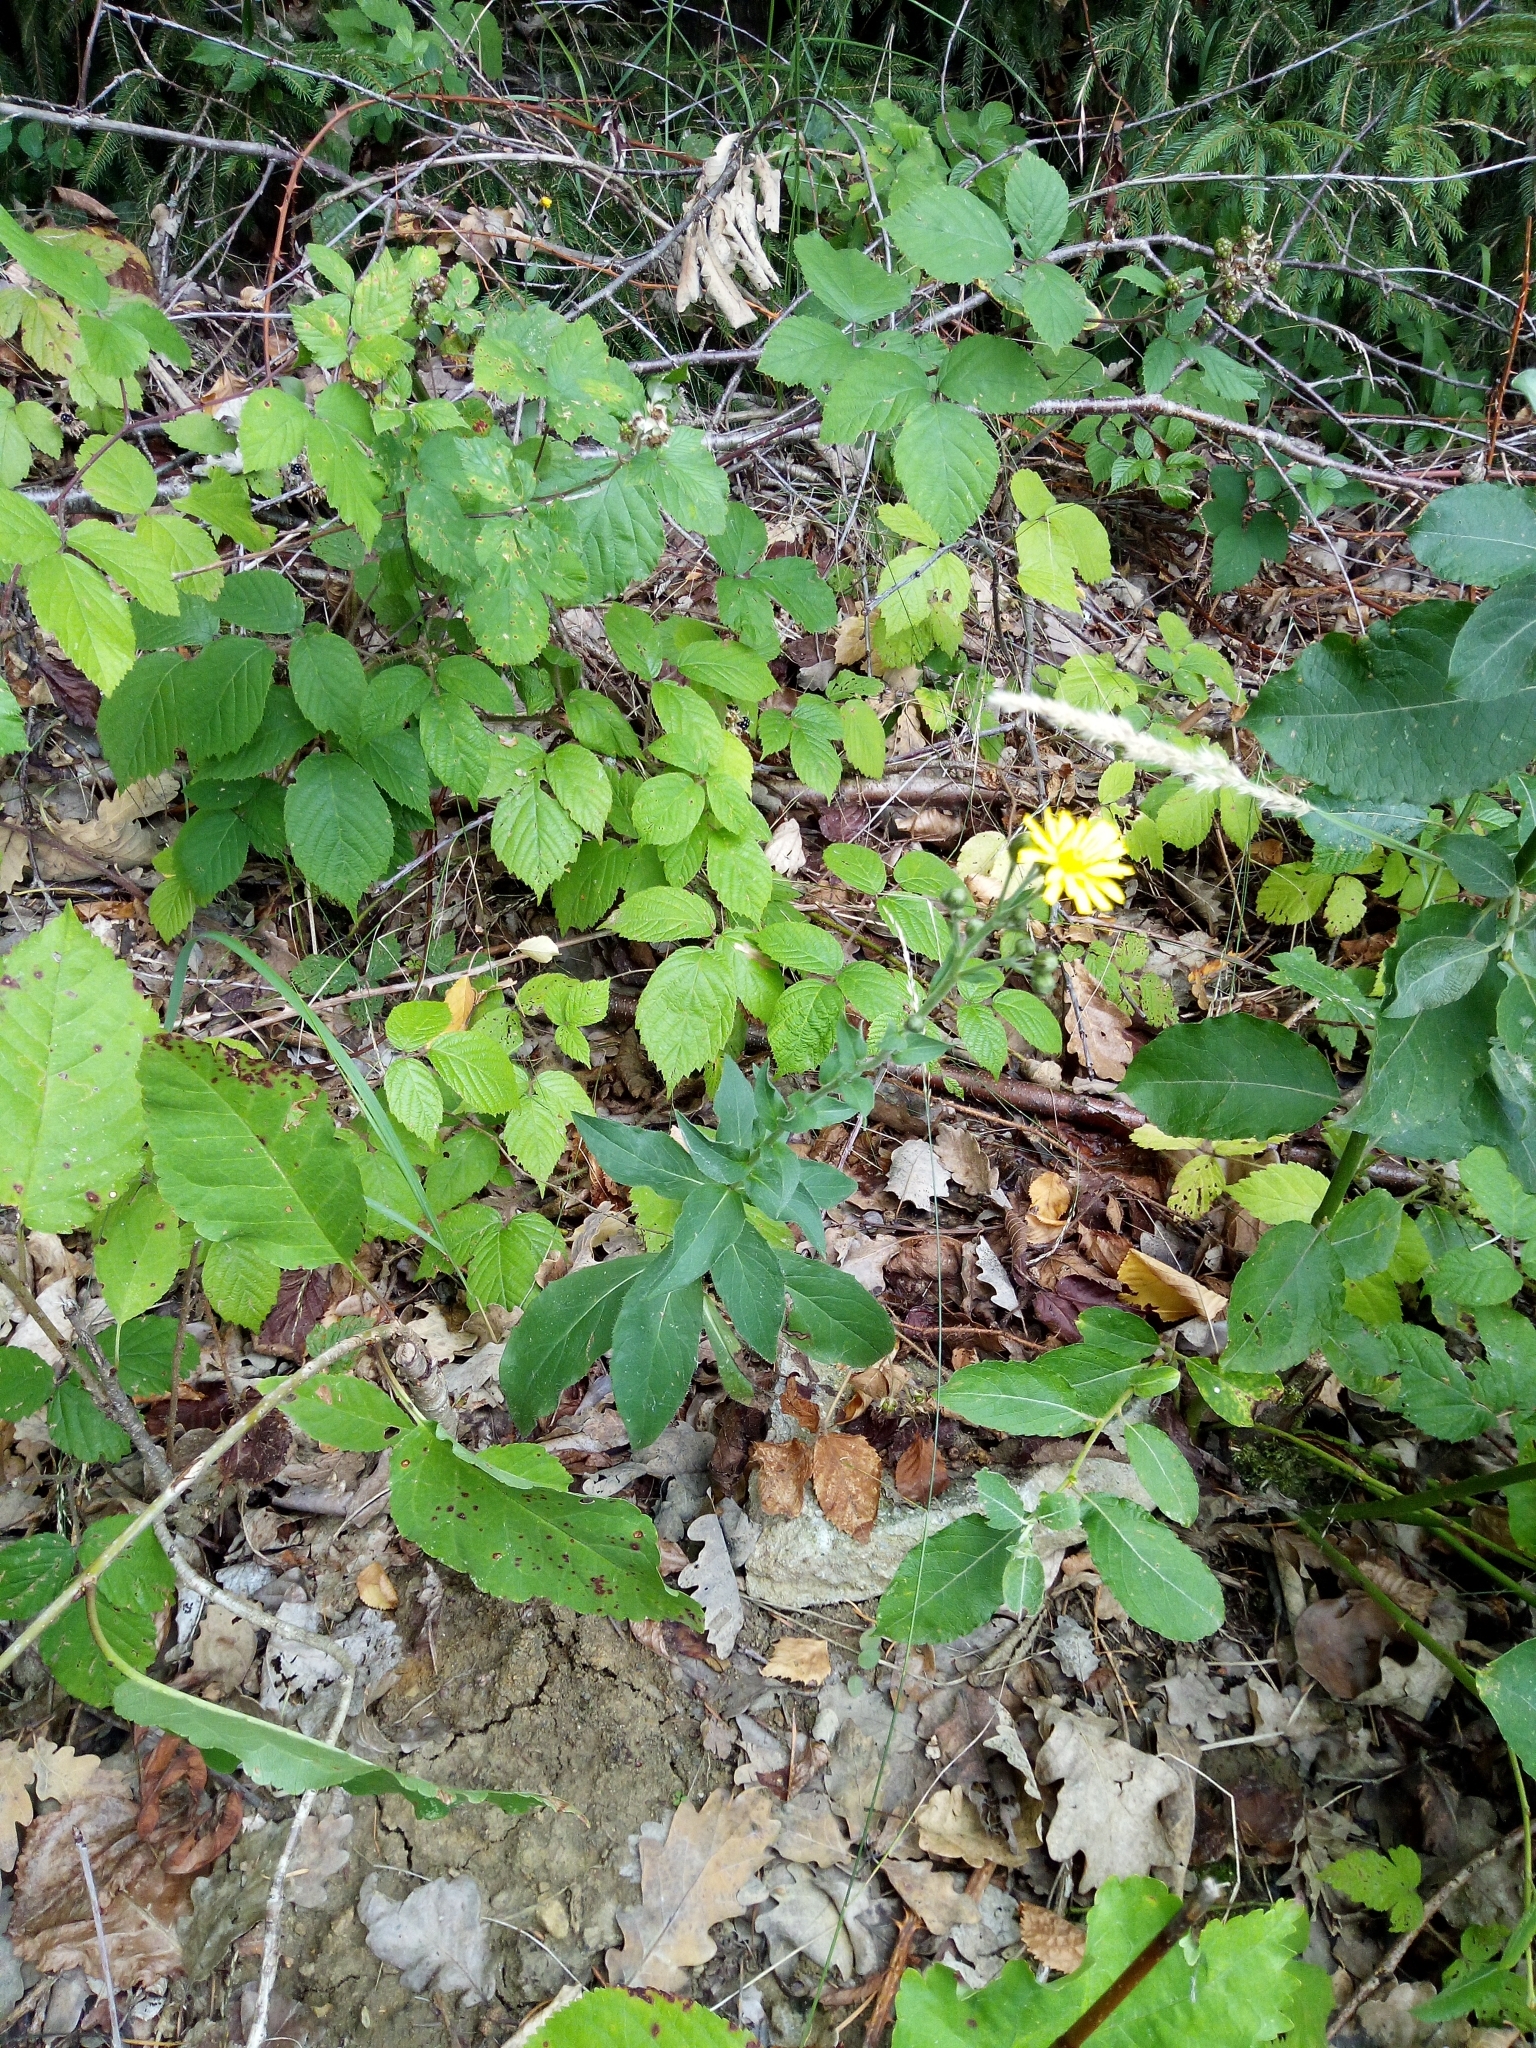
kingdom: Plantae
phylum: Tracheophyta
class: Magnoliopsida
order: Asterales
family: Asteraceae
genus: Hieracium
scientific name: Hieracium sabaudum
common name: New england hawkweed
